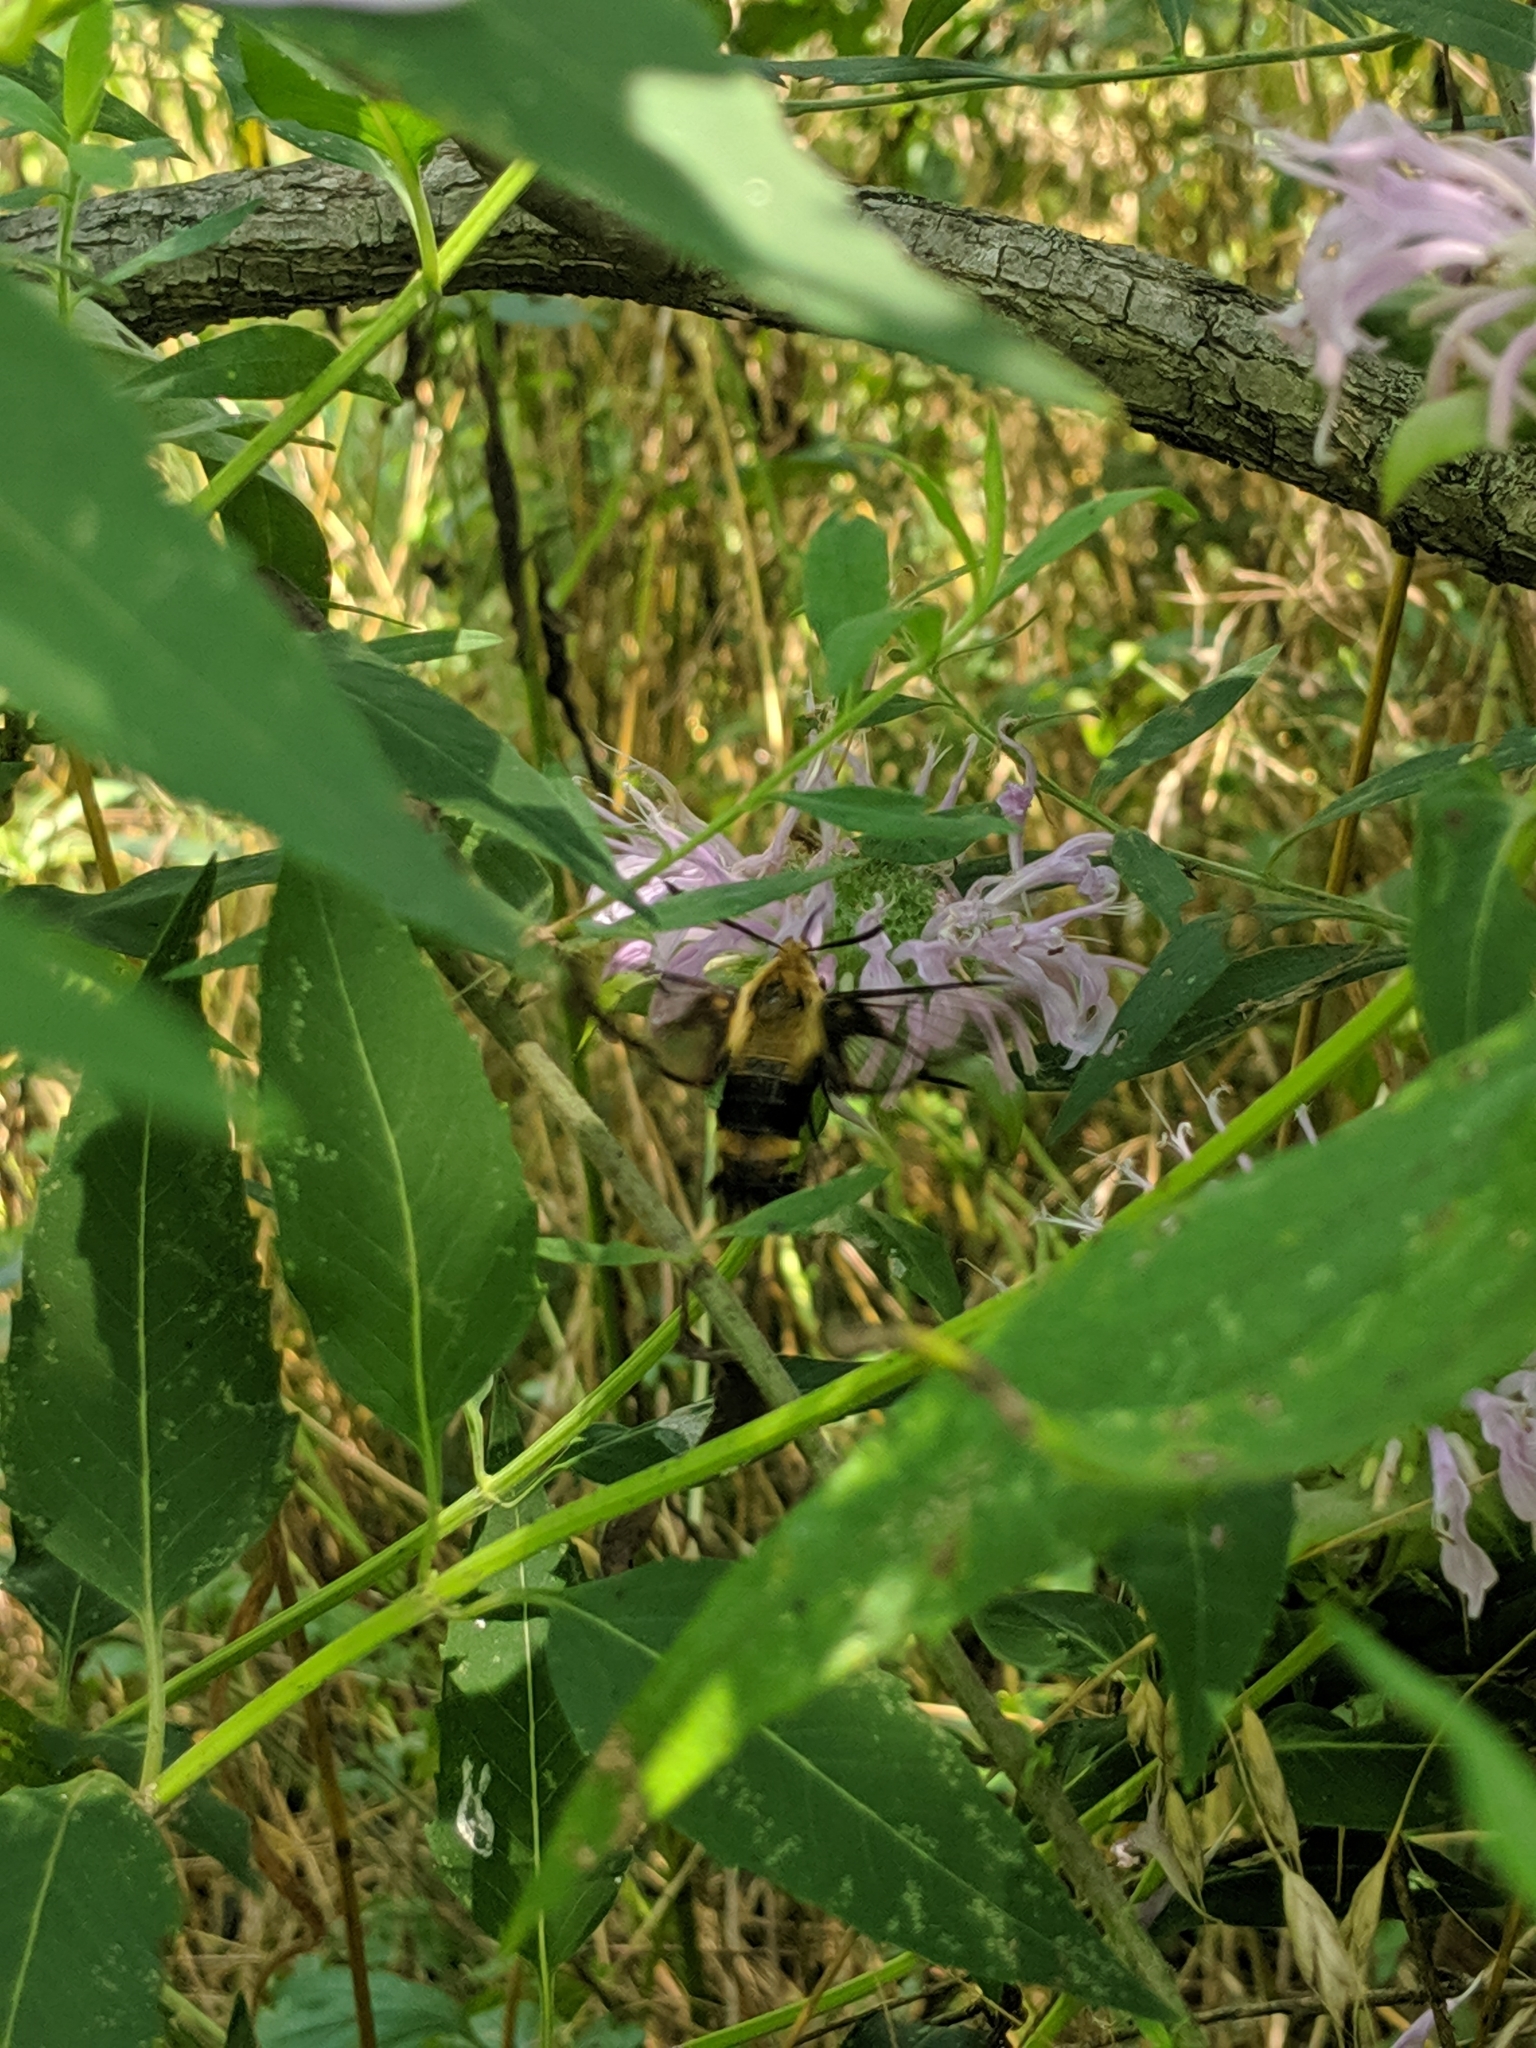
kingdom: Animalia
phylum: Arthropoda
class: Insecta
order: Lepidoptera
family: Sphingidae
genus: Hemaris
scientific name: Hemaris diffinis
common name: Bumblebee moth
